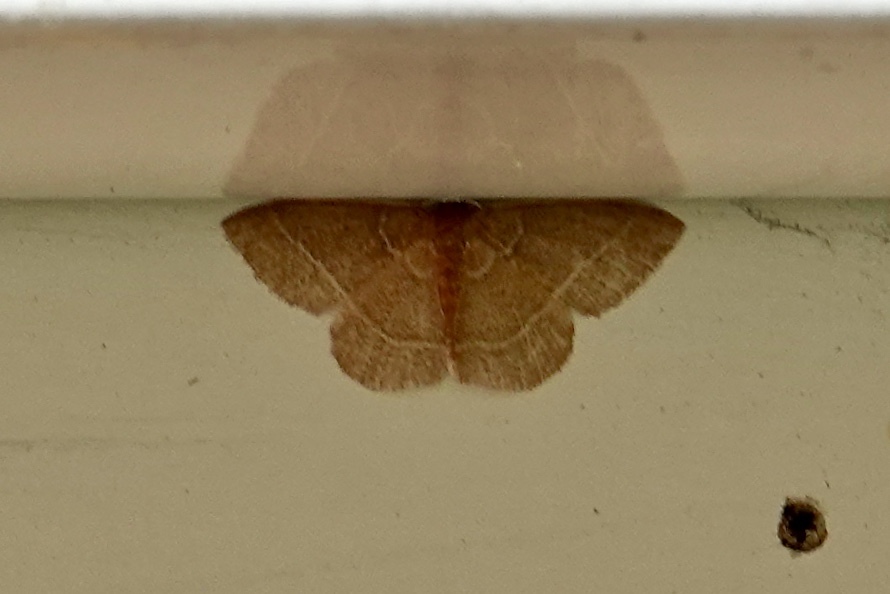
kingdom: Animalia
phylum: Arthropoda
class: Insecta
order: Lepidoptera
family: Geometridae
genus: Nemoria
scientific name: Nemoria bistriaria
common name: Red-fringed emerald
